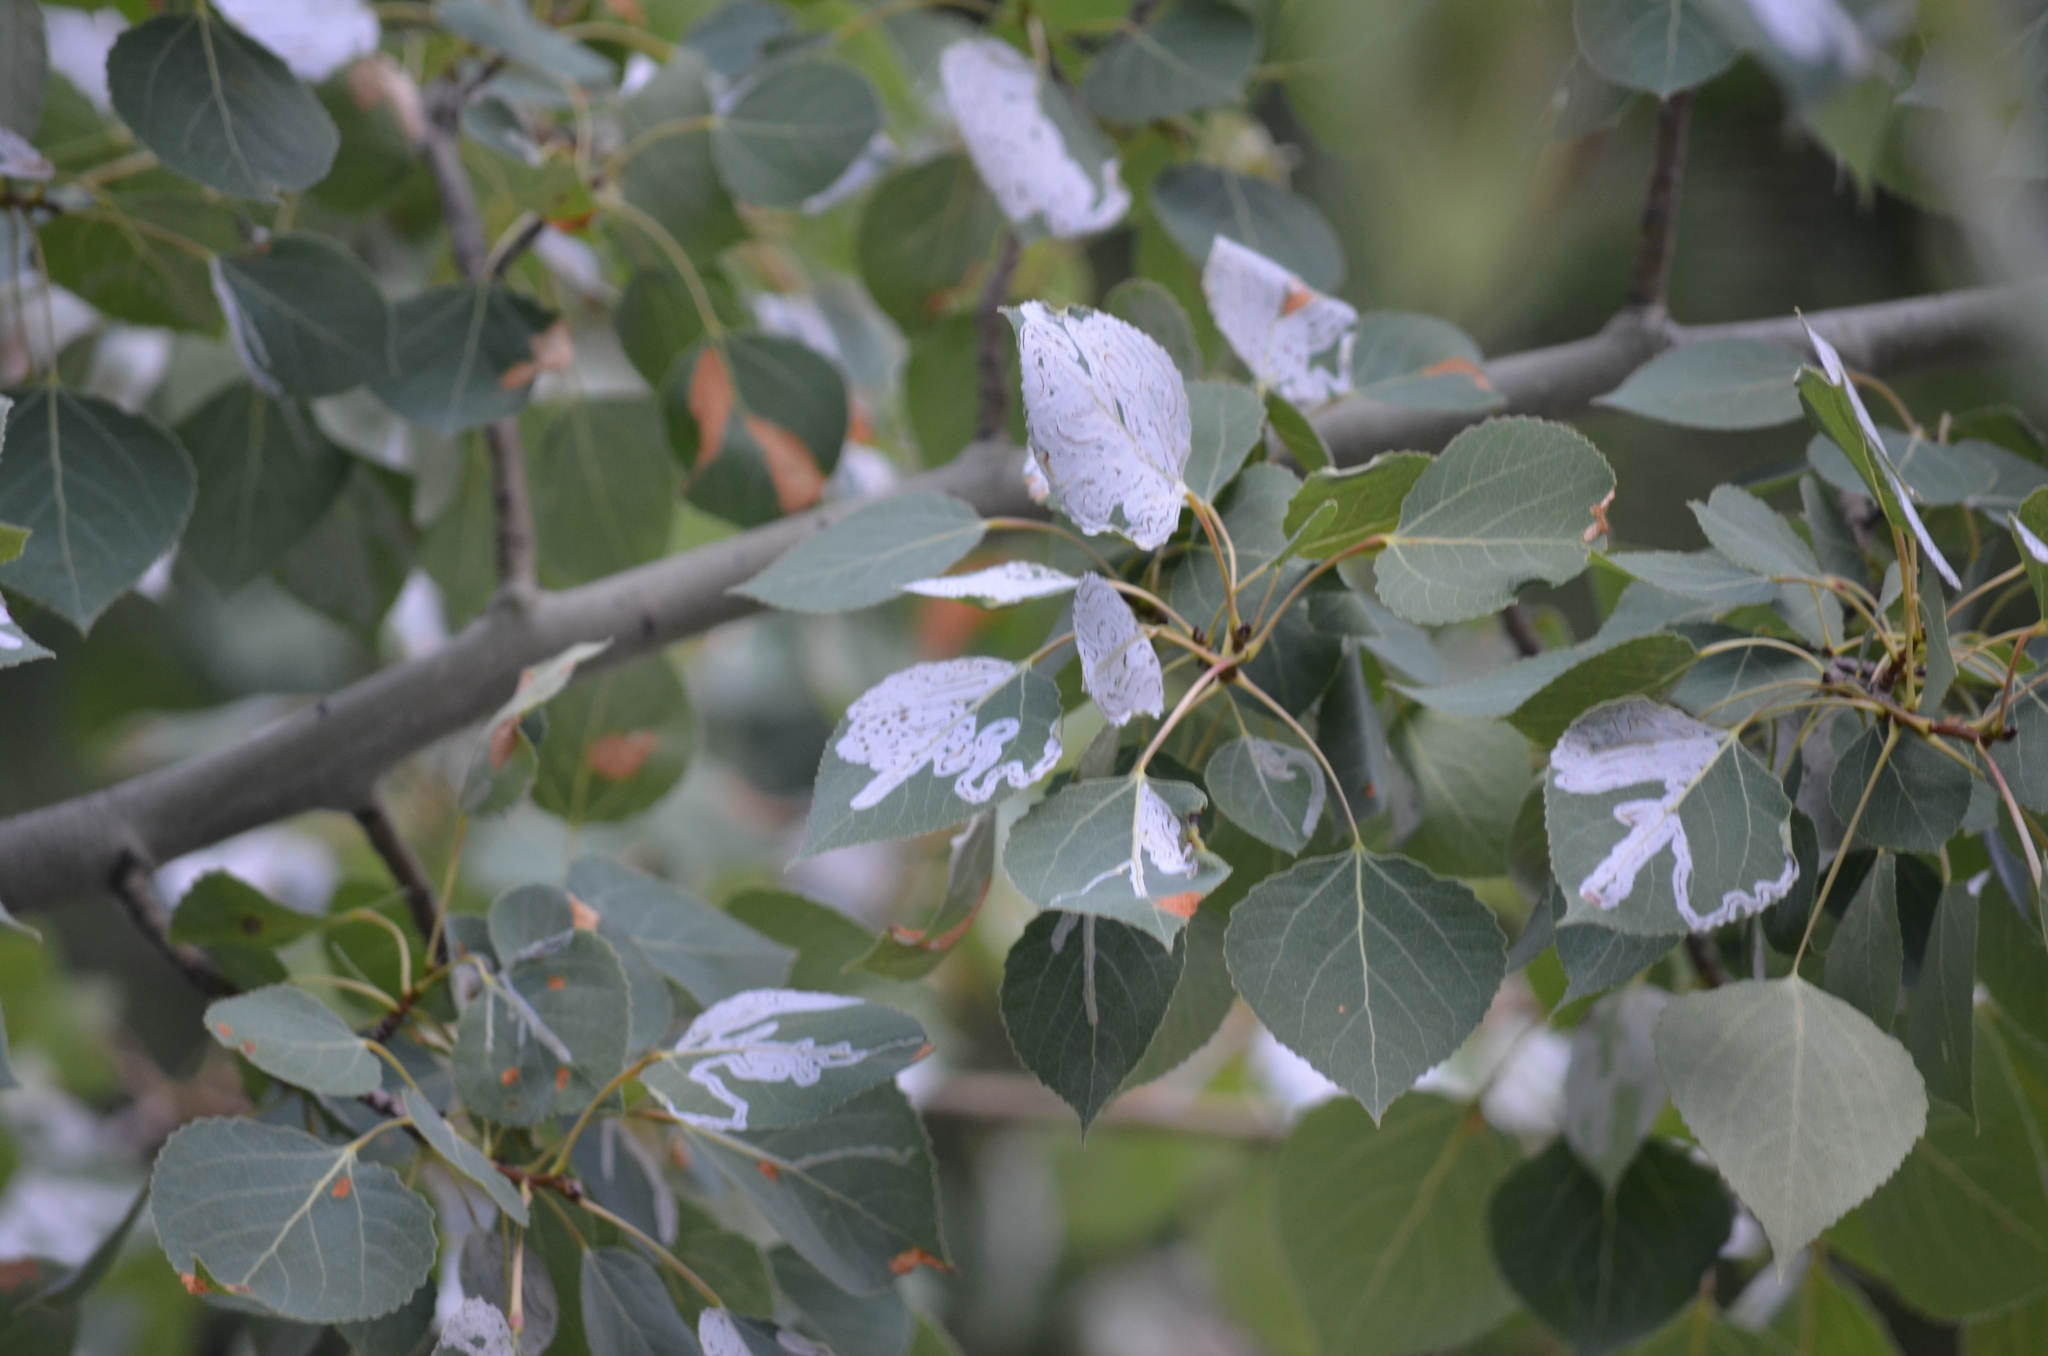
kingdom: Animalia
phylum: Arthropoda
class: Insecta
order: Lepidoptera
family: Gracillariidae
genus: Phyllocnistis
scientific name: Phyllocnistis populiella
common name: Aspen serpentine leafminer moth
